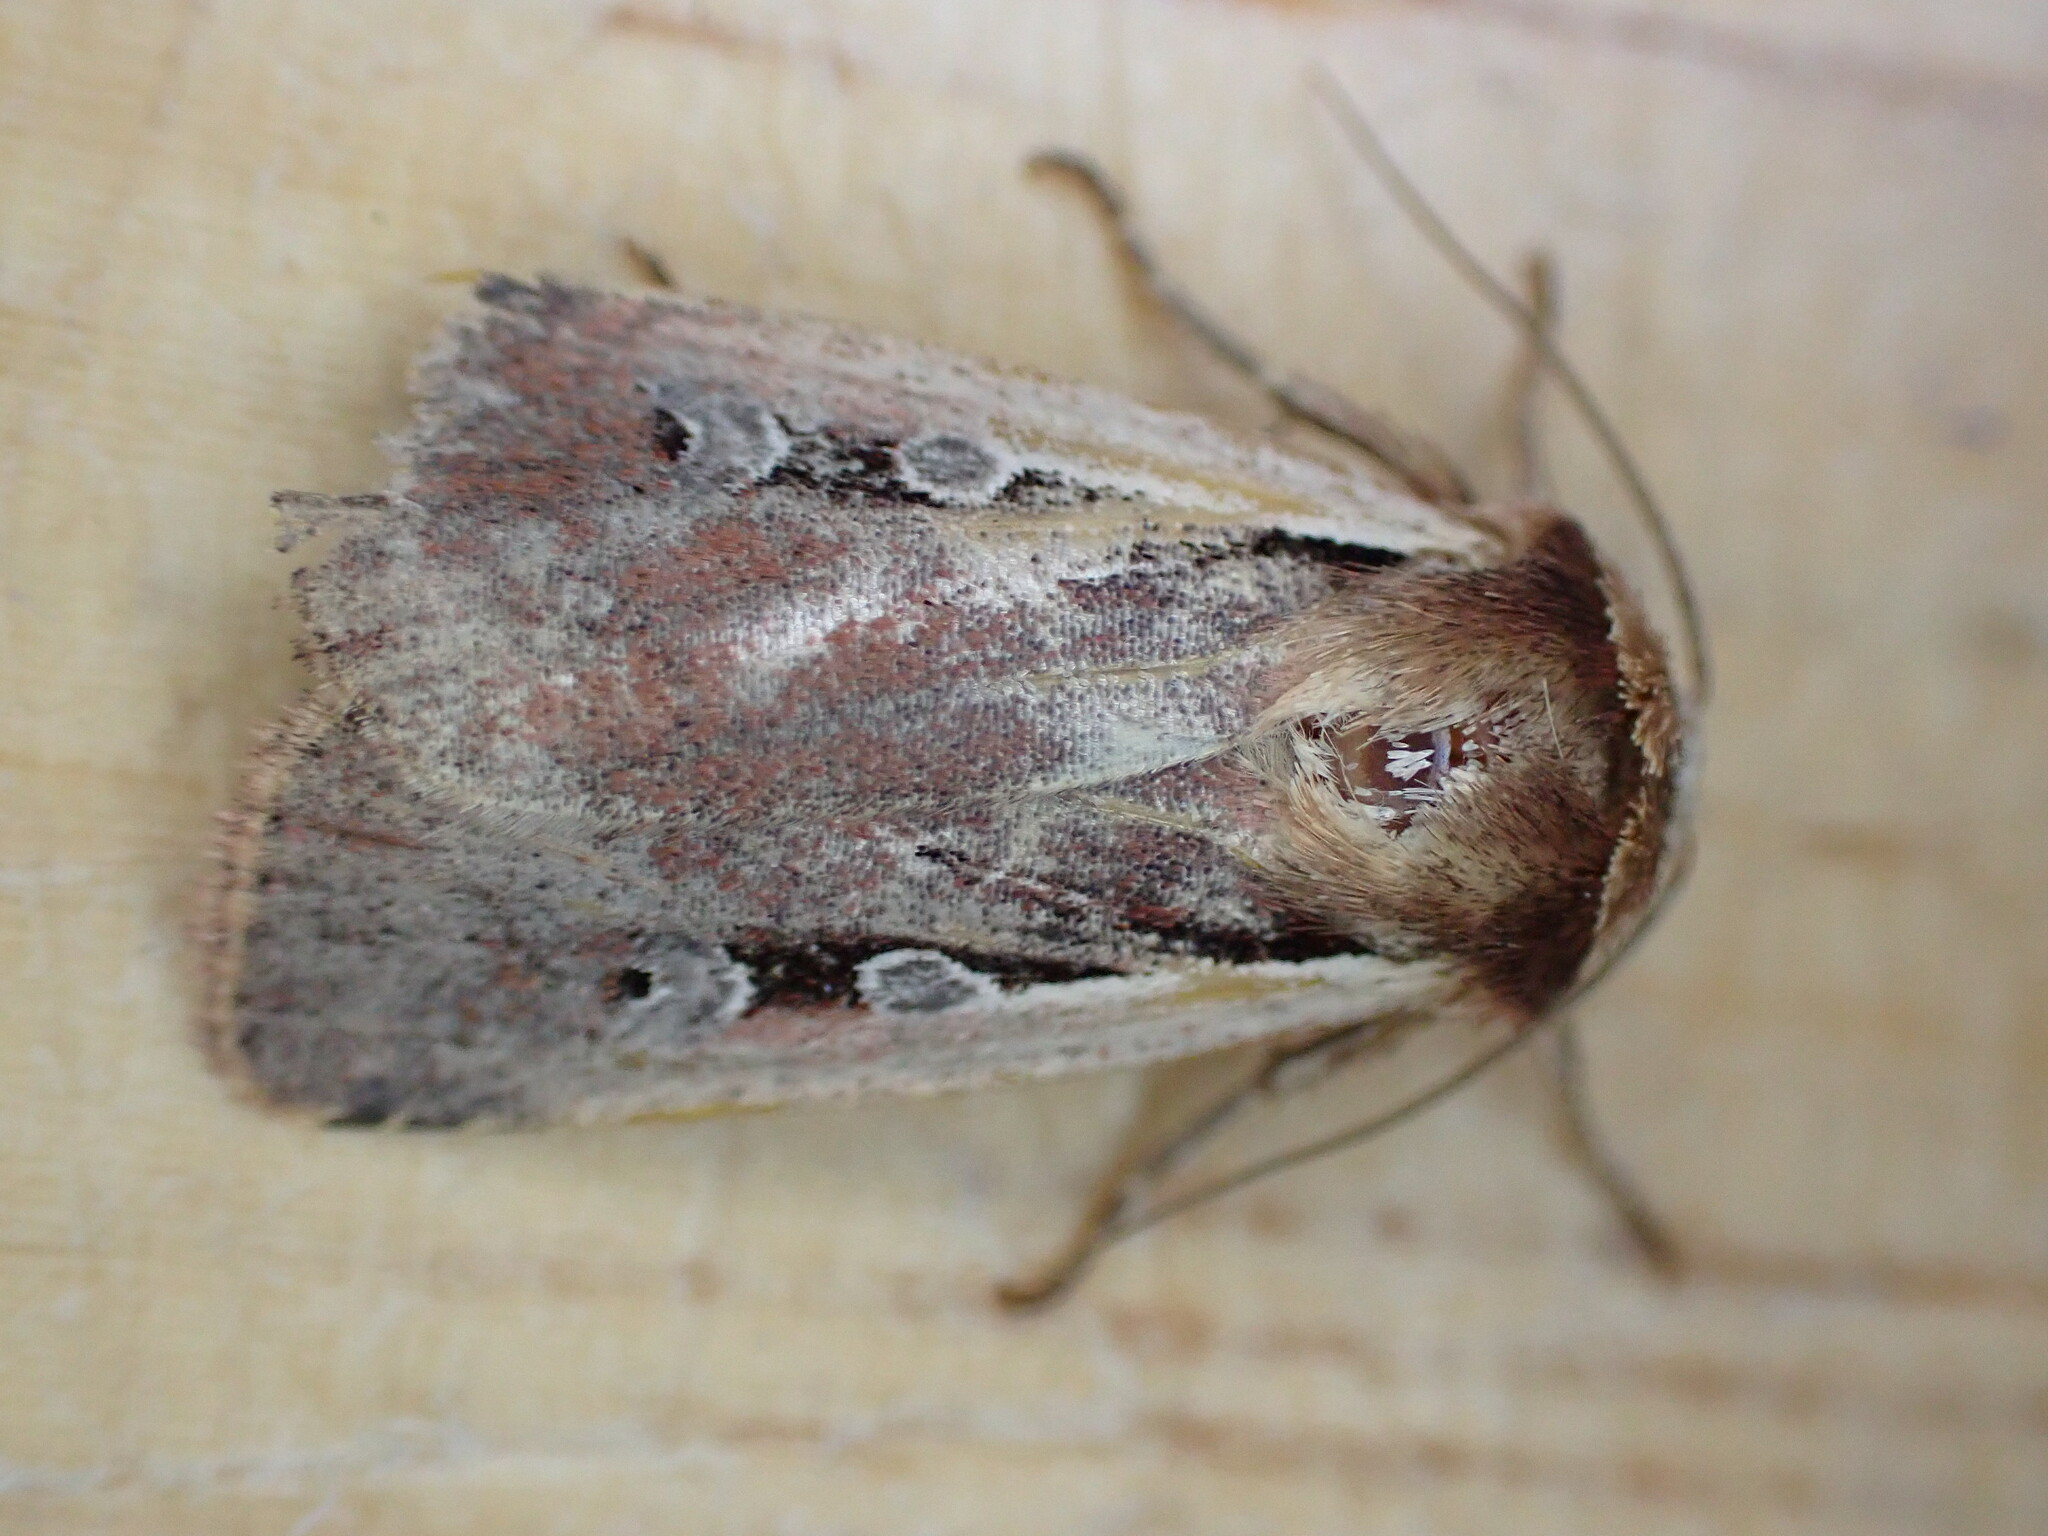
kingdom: Animalia
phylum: Arthropoda
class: Insecta
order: Lepidoptera
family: Noctuidae
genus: Ochropleura
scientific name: Ochropleura plecta
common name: Flame shoulder
